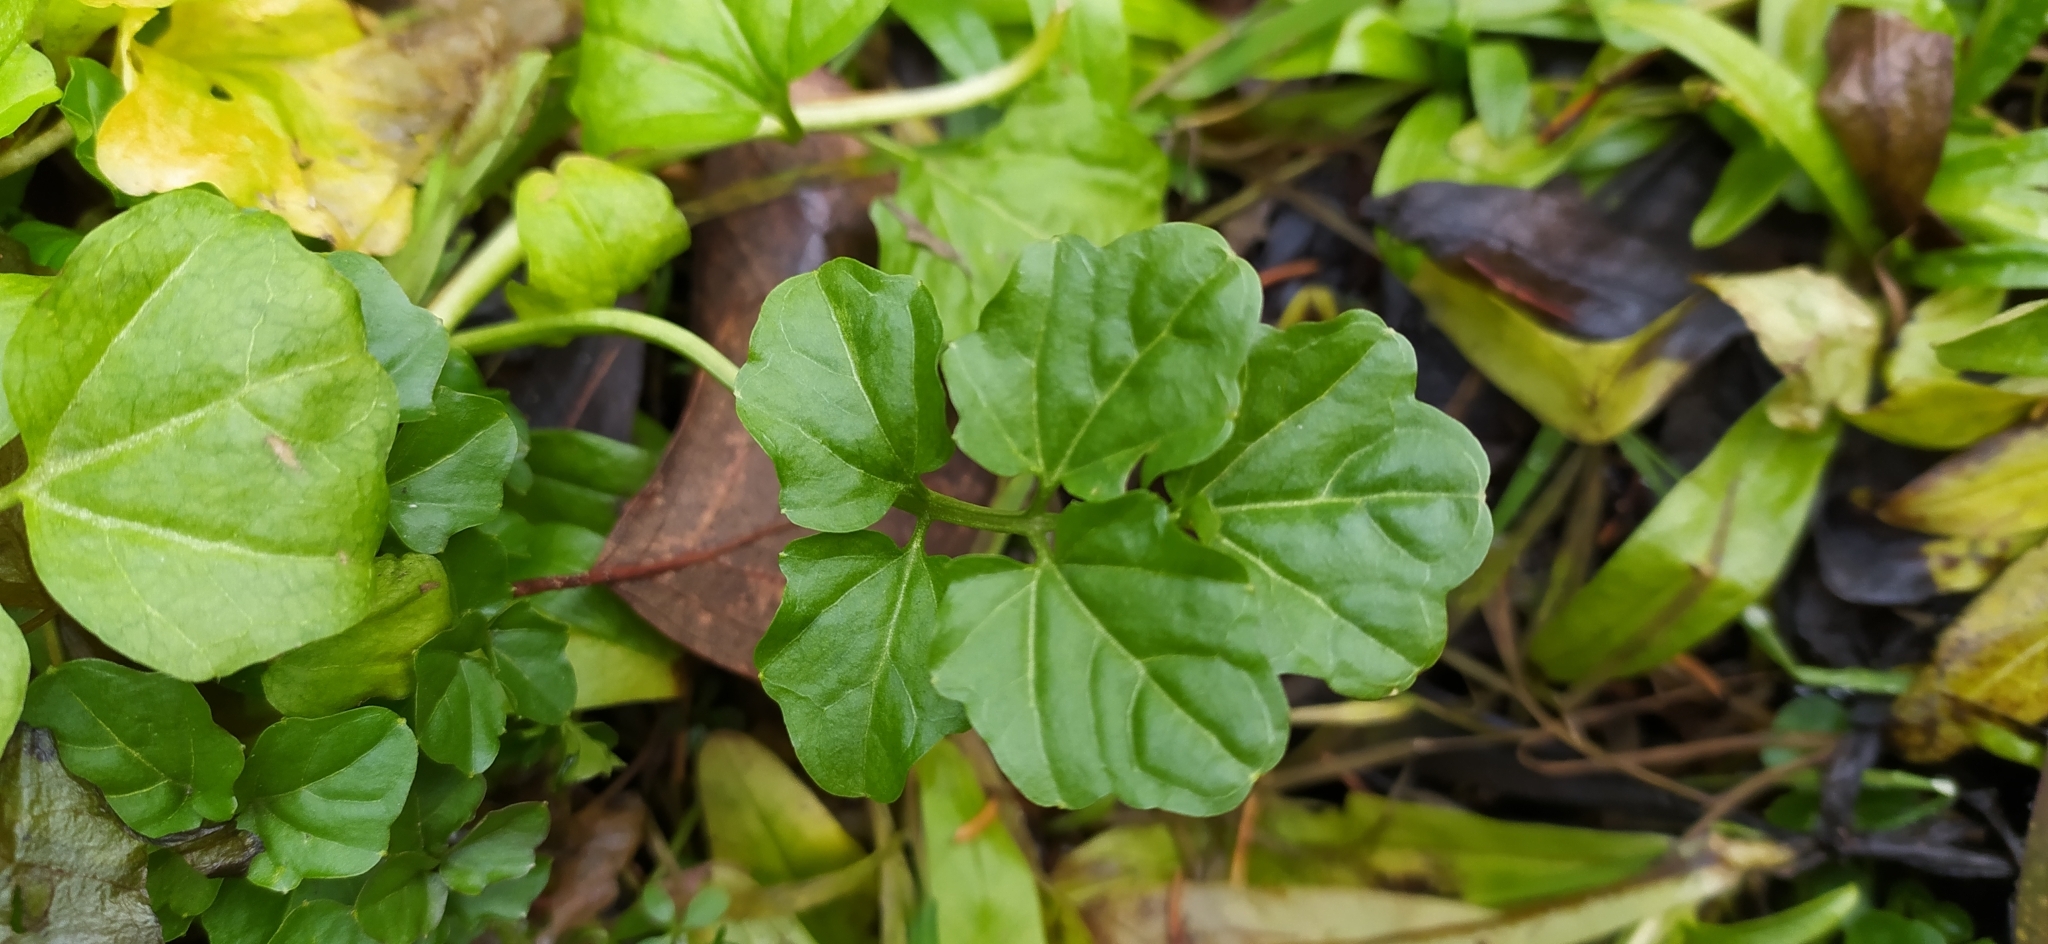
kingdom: Plantae
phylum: Tracheophyta
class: Magnoliopsida
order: Brassicales
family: Brassicaceae
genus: Cardamine
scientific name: Cardamine amara
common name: Large bitter-cress
